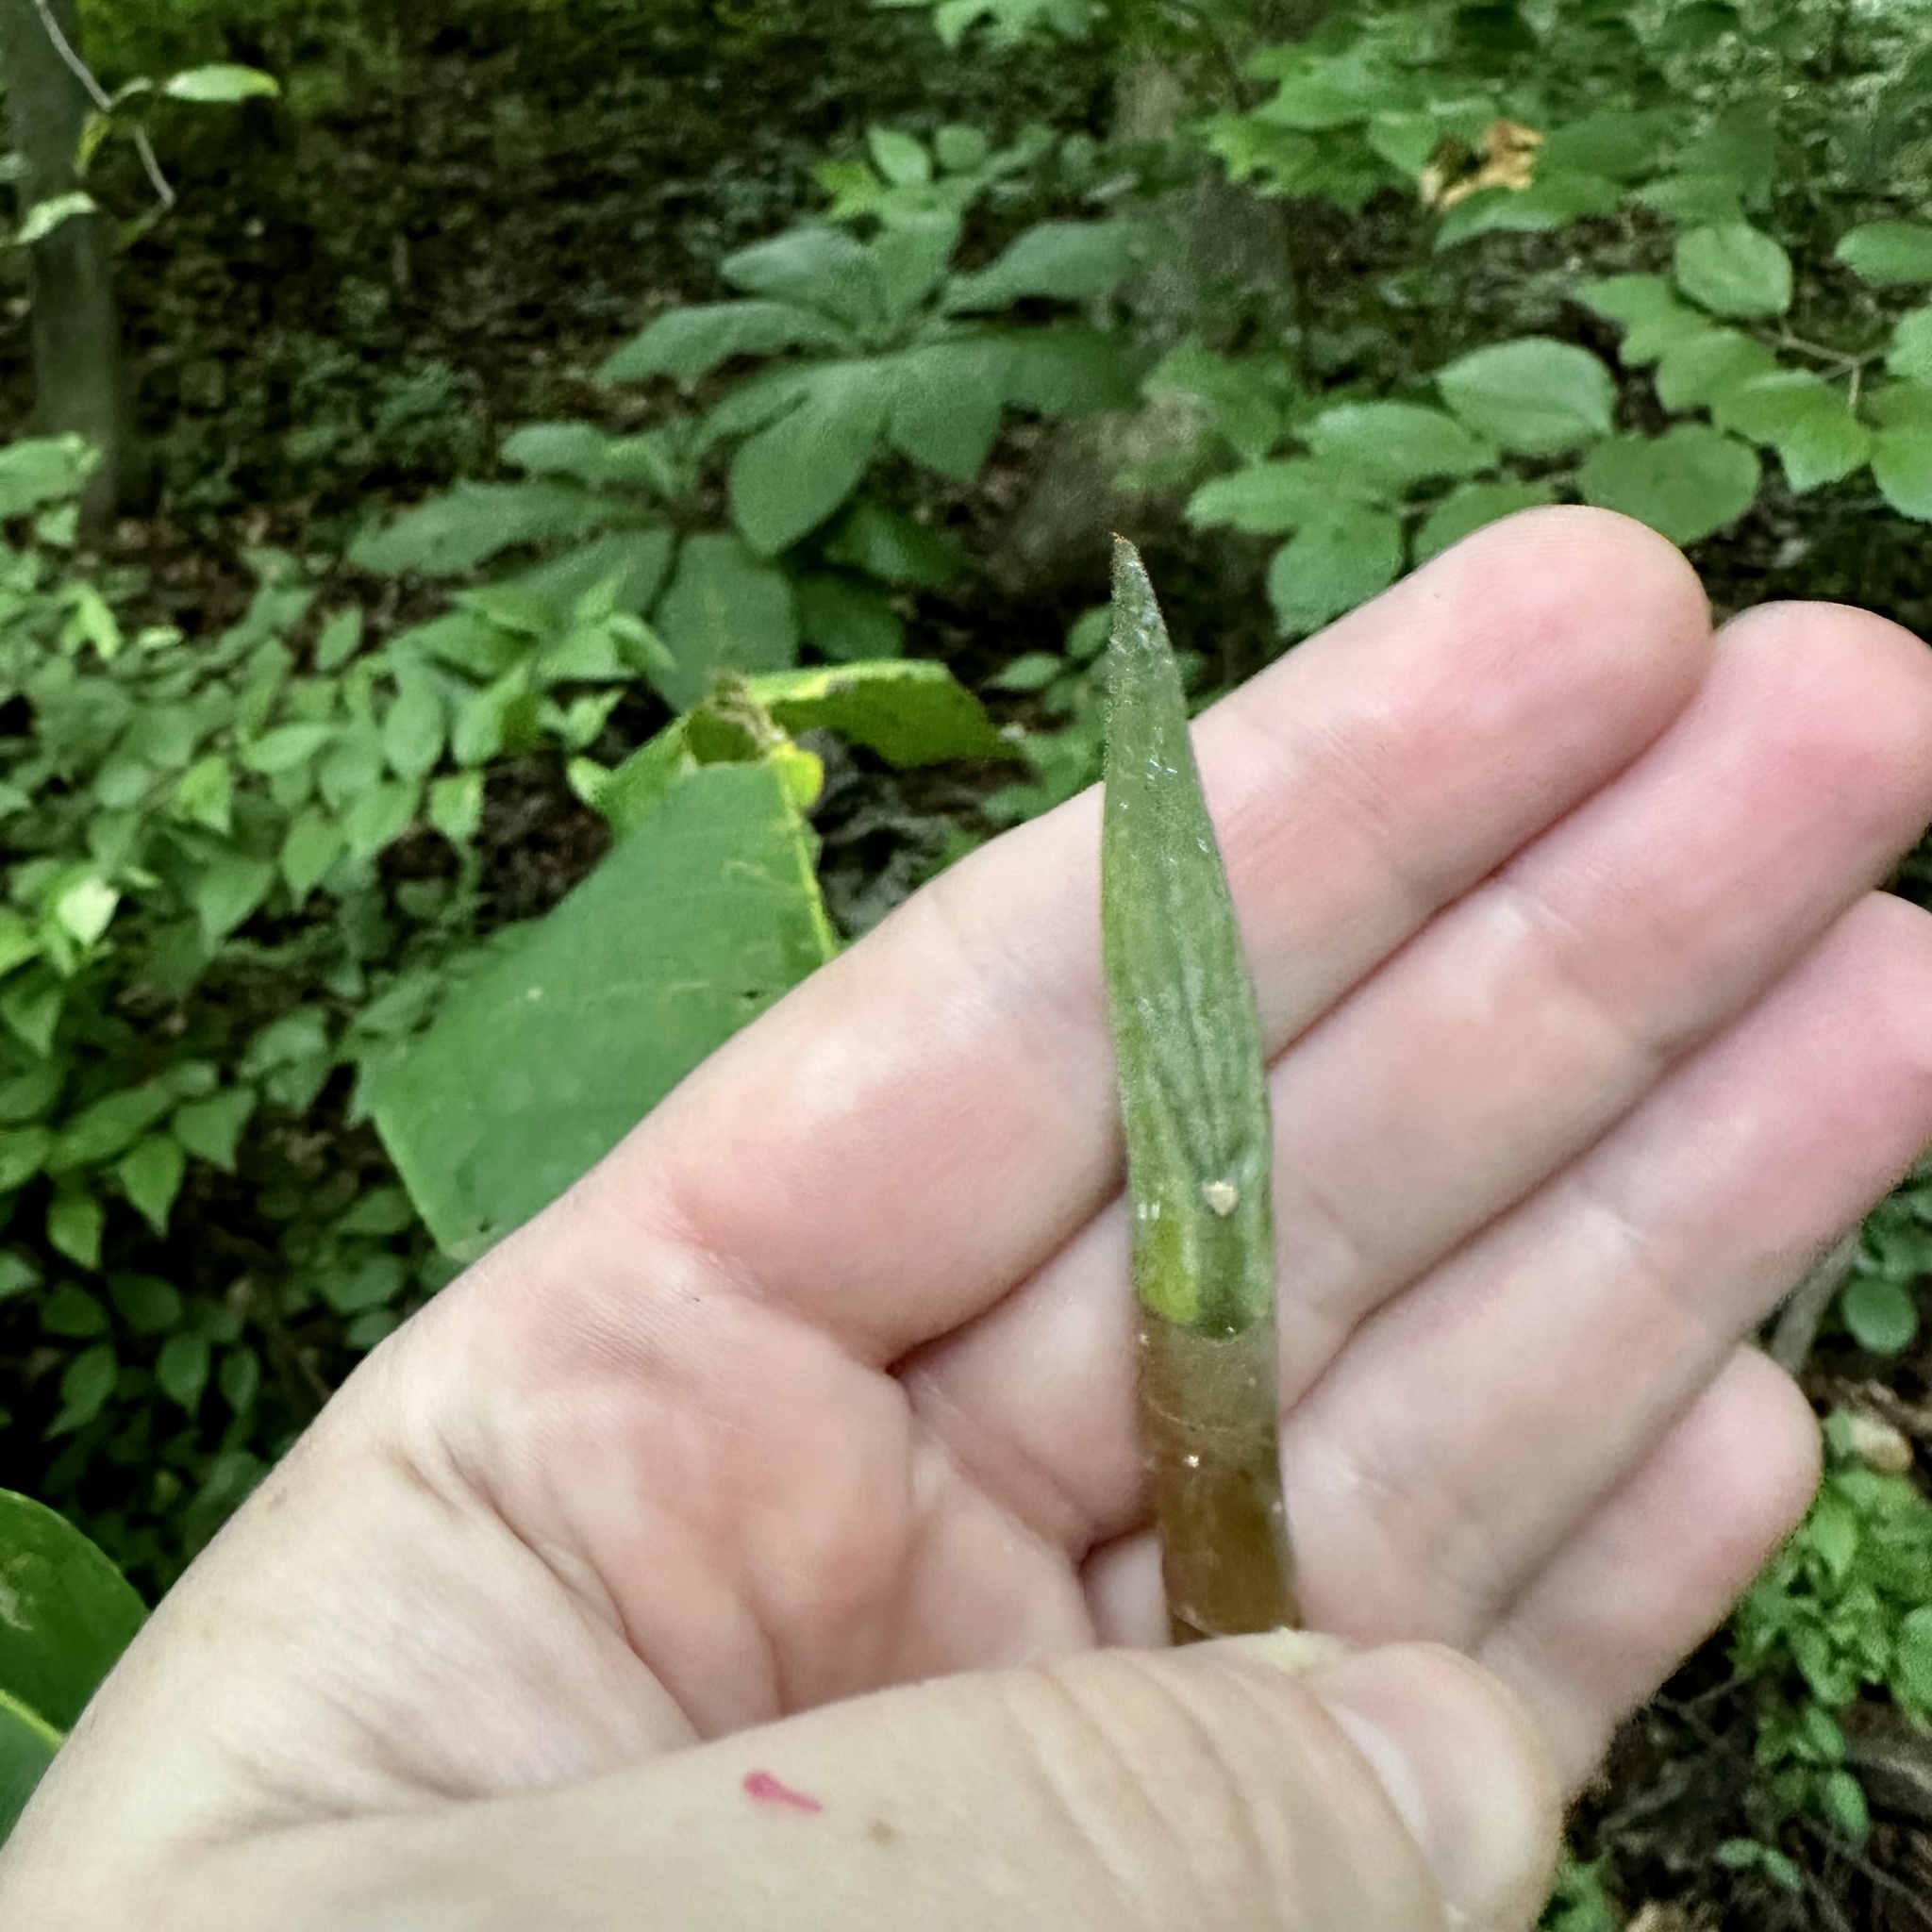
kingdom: Plantae
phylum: Tracheophyta
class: Magnoliopsida
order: Magnoliales
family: Magnoliaceae
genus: Magnolia
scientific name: Magnolia tripetala
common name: Umbrella magnolia
